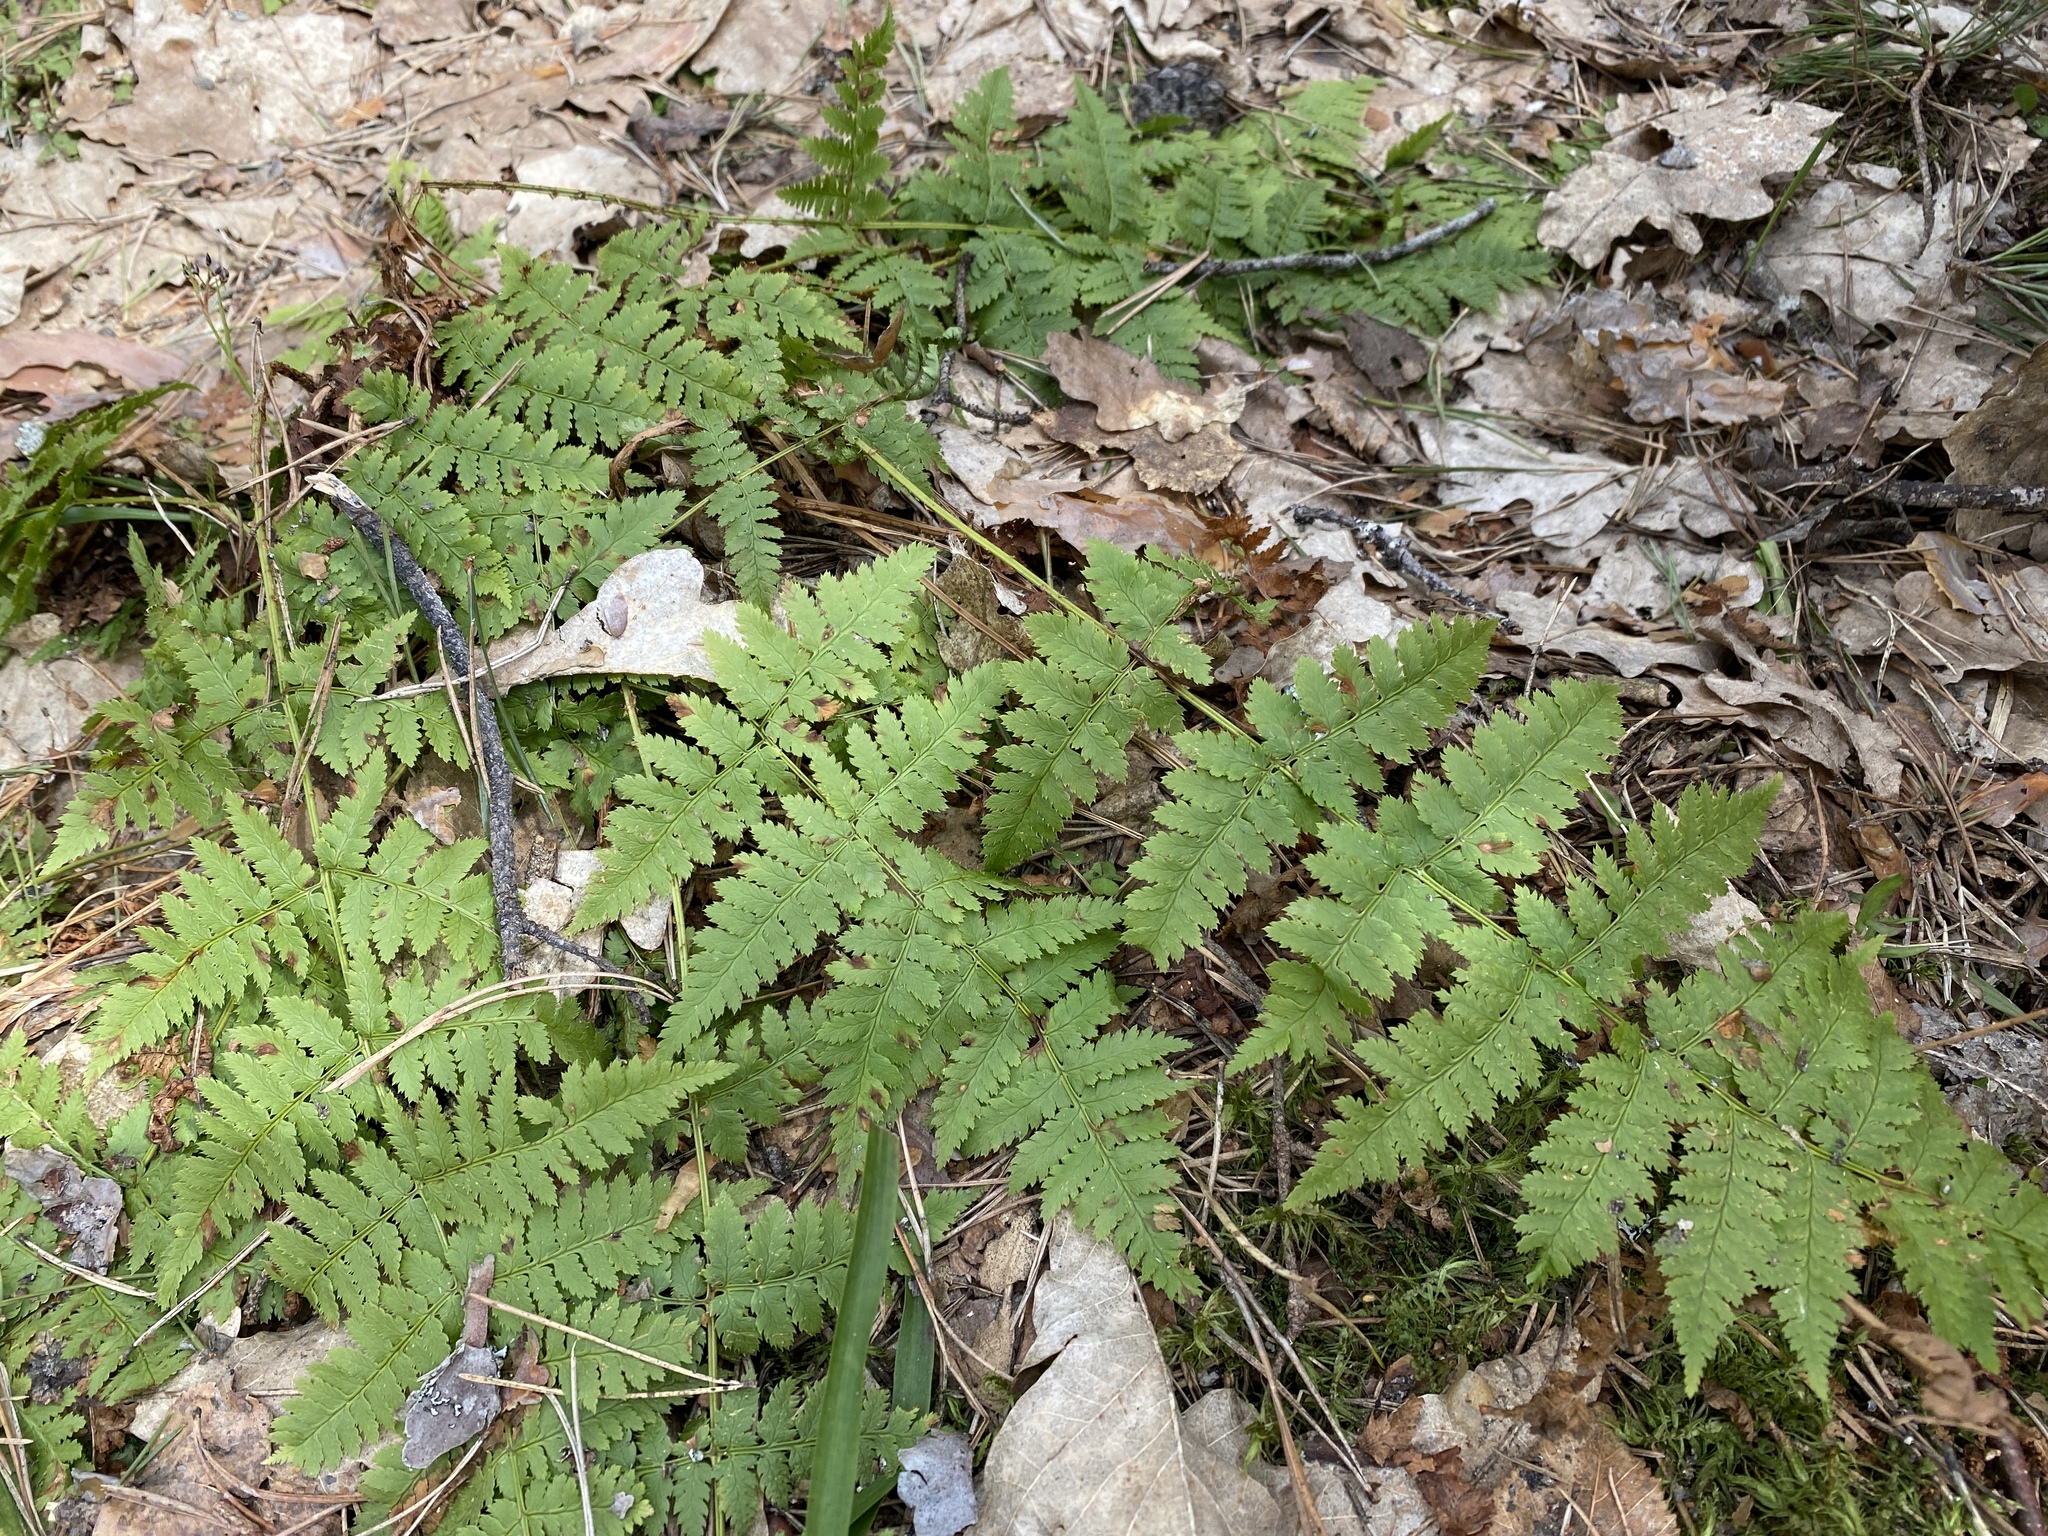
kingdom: Plantae
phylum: Tracheophyta
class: Polypodiopsida
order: Polypodiales
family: Dryopteridaceae
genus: Dryopteris
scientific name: Dryopteris carthusiana
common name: Narrow buckler-fern
